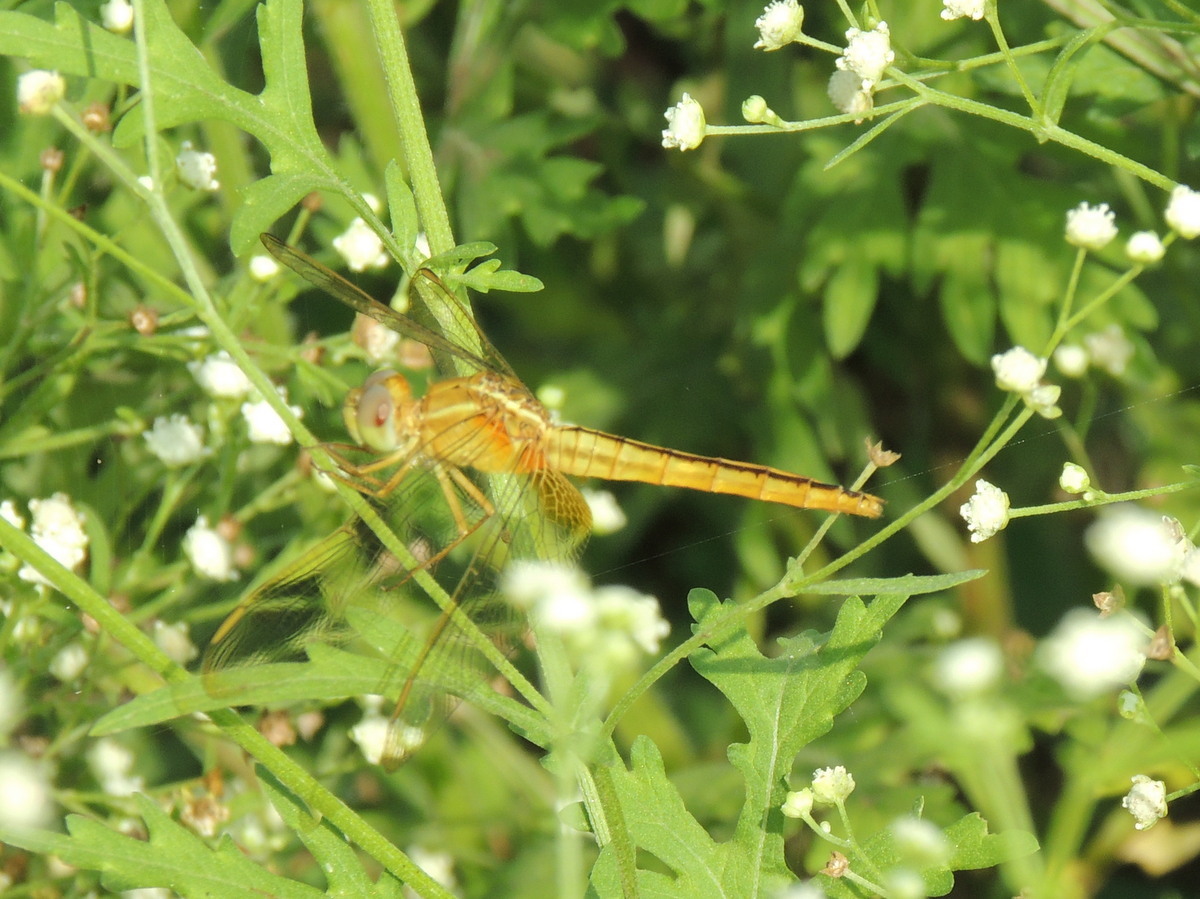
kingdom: Animalia
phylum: Arthropoda
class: Insecta
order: Odonata
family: Libellulidae
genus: Crocothemis
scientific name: Crocothemis servilia
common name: Scarlet skimmer
